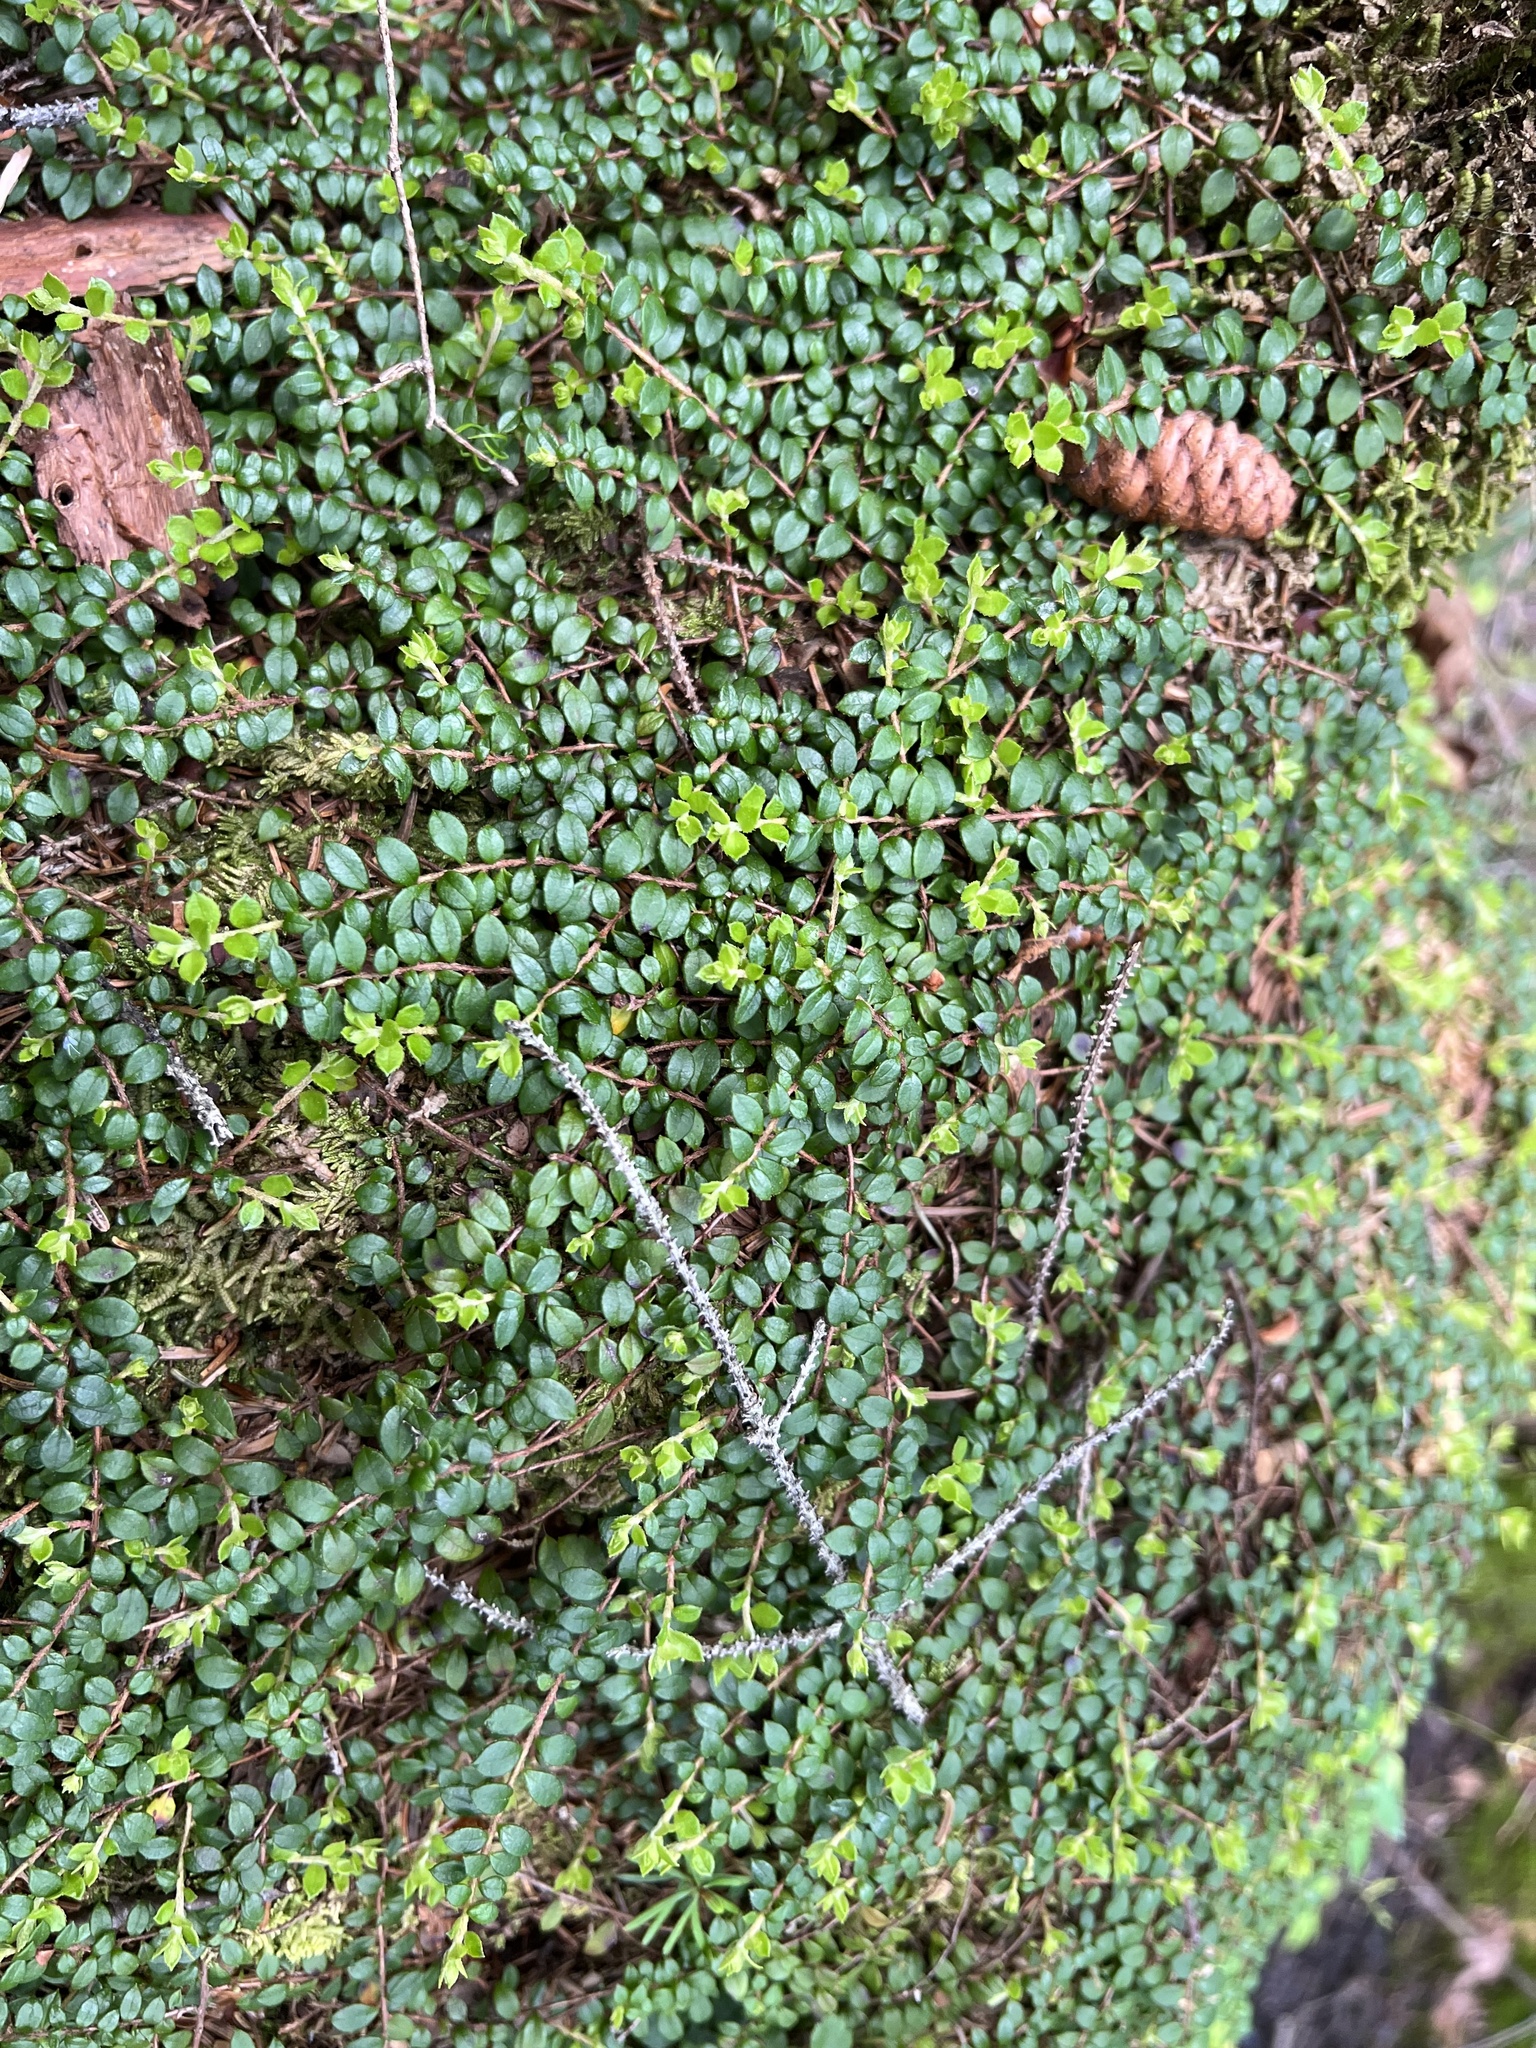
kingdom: Plantae
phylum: Tracheophyta
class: Magnoliopsida
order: Ericales
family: Ericaceae
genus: Gaultheria
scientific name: Gaultheria hispidula
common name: Cancer wintergreen
